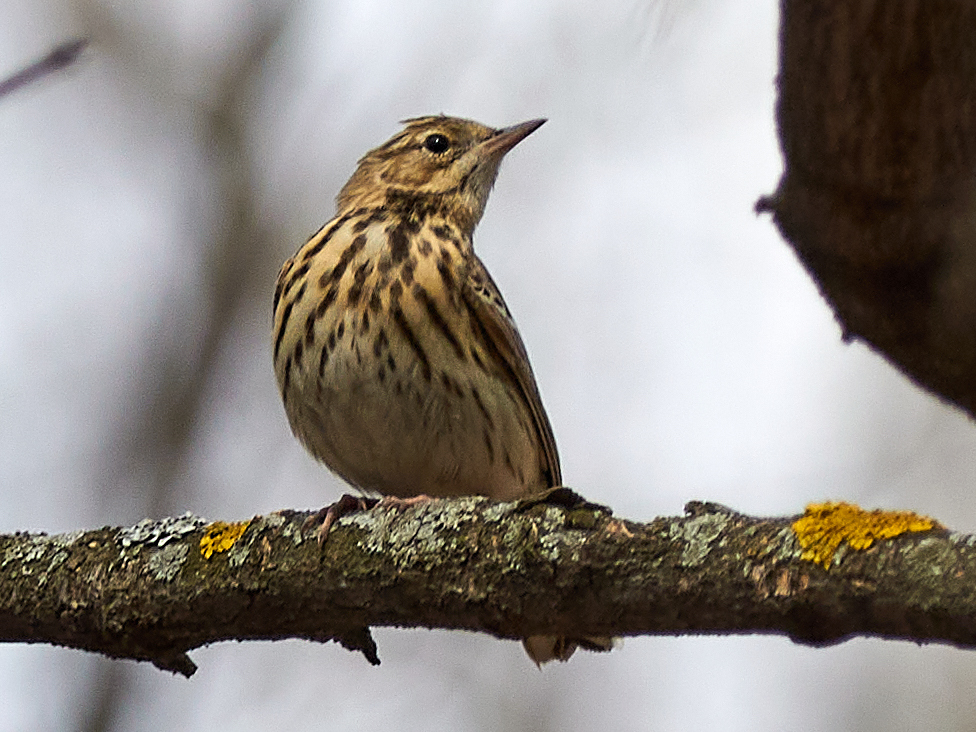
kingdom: Animalia
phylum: Chordata
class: Aves
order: Passeriformes
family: Motacillidae
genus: Anthus
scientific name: Anthus trivialis
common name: Tree pipit
